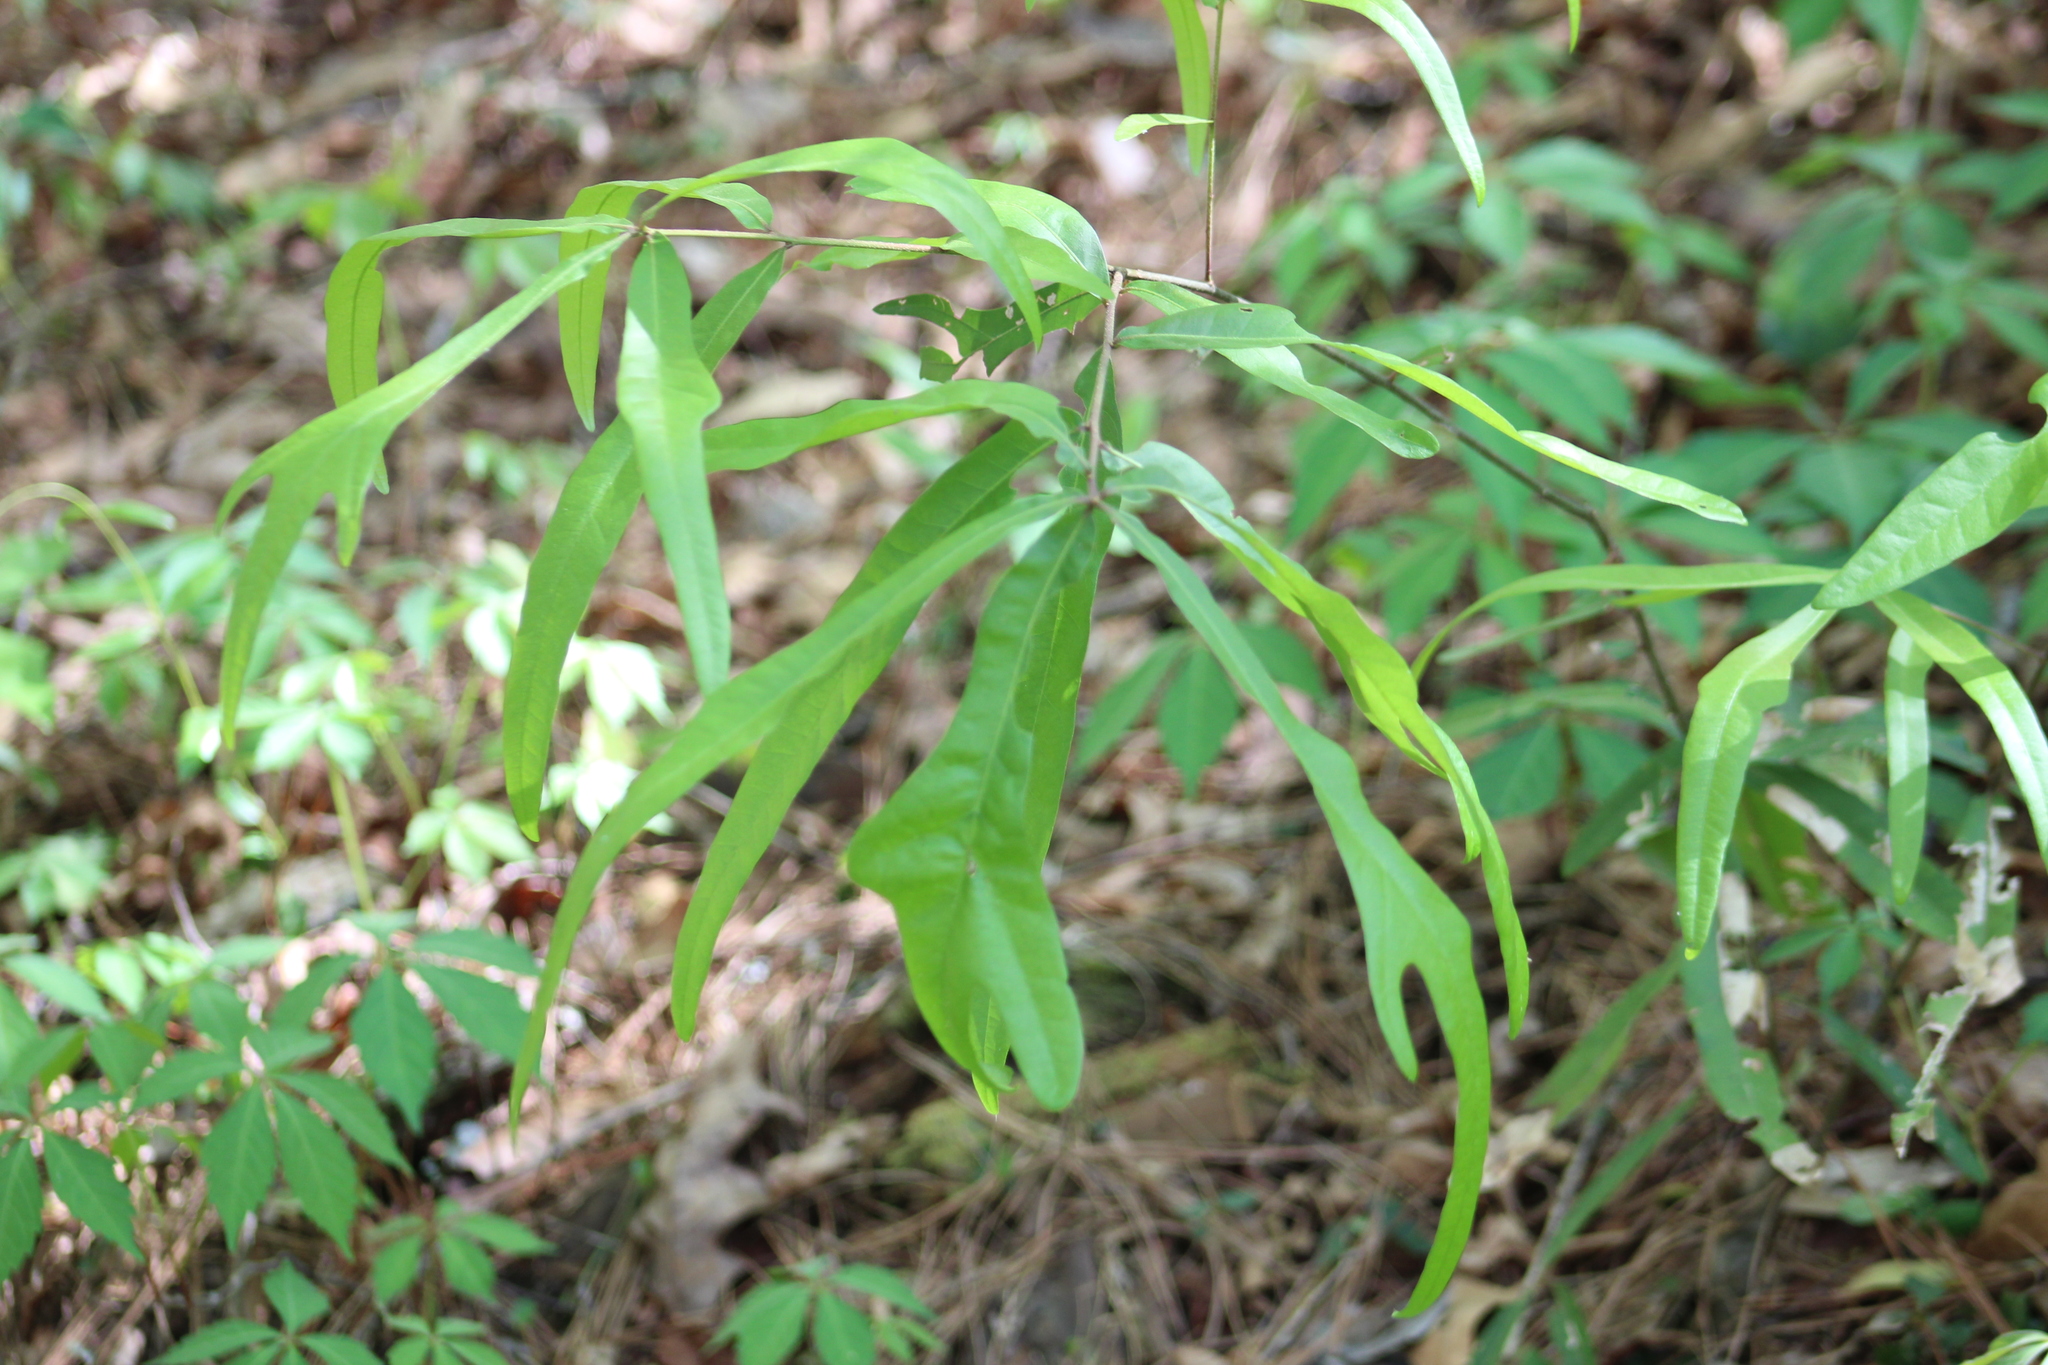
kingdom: Plantae
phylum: Tracheophyta
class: Magnoliopsida
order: Fagales
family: Fagaceae
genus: Quercus
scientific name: Quercus nigra
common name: Water oak
